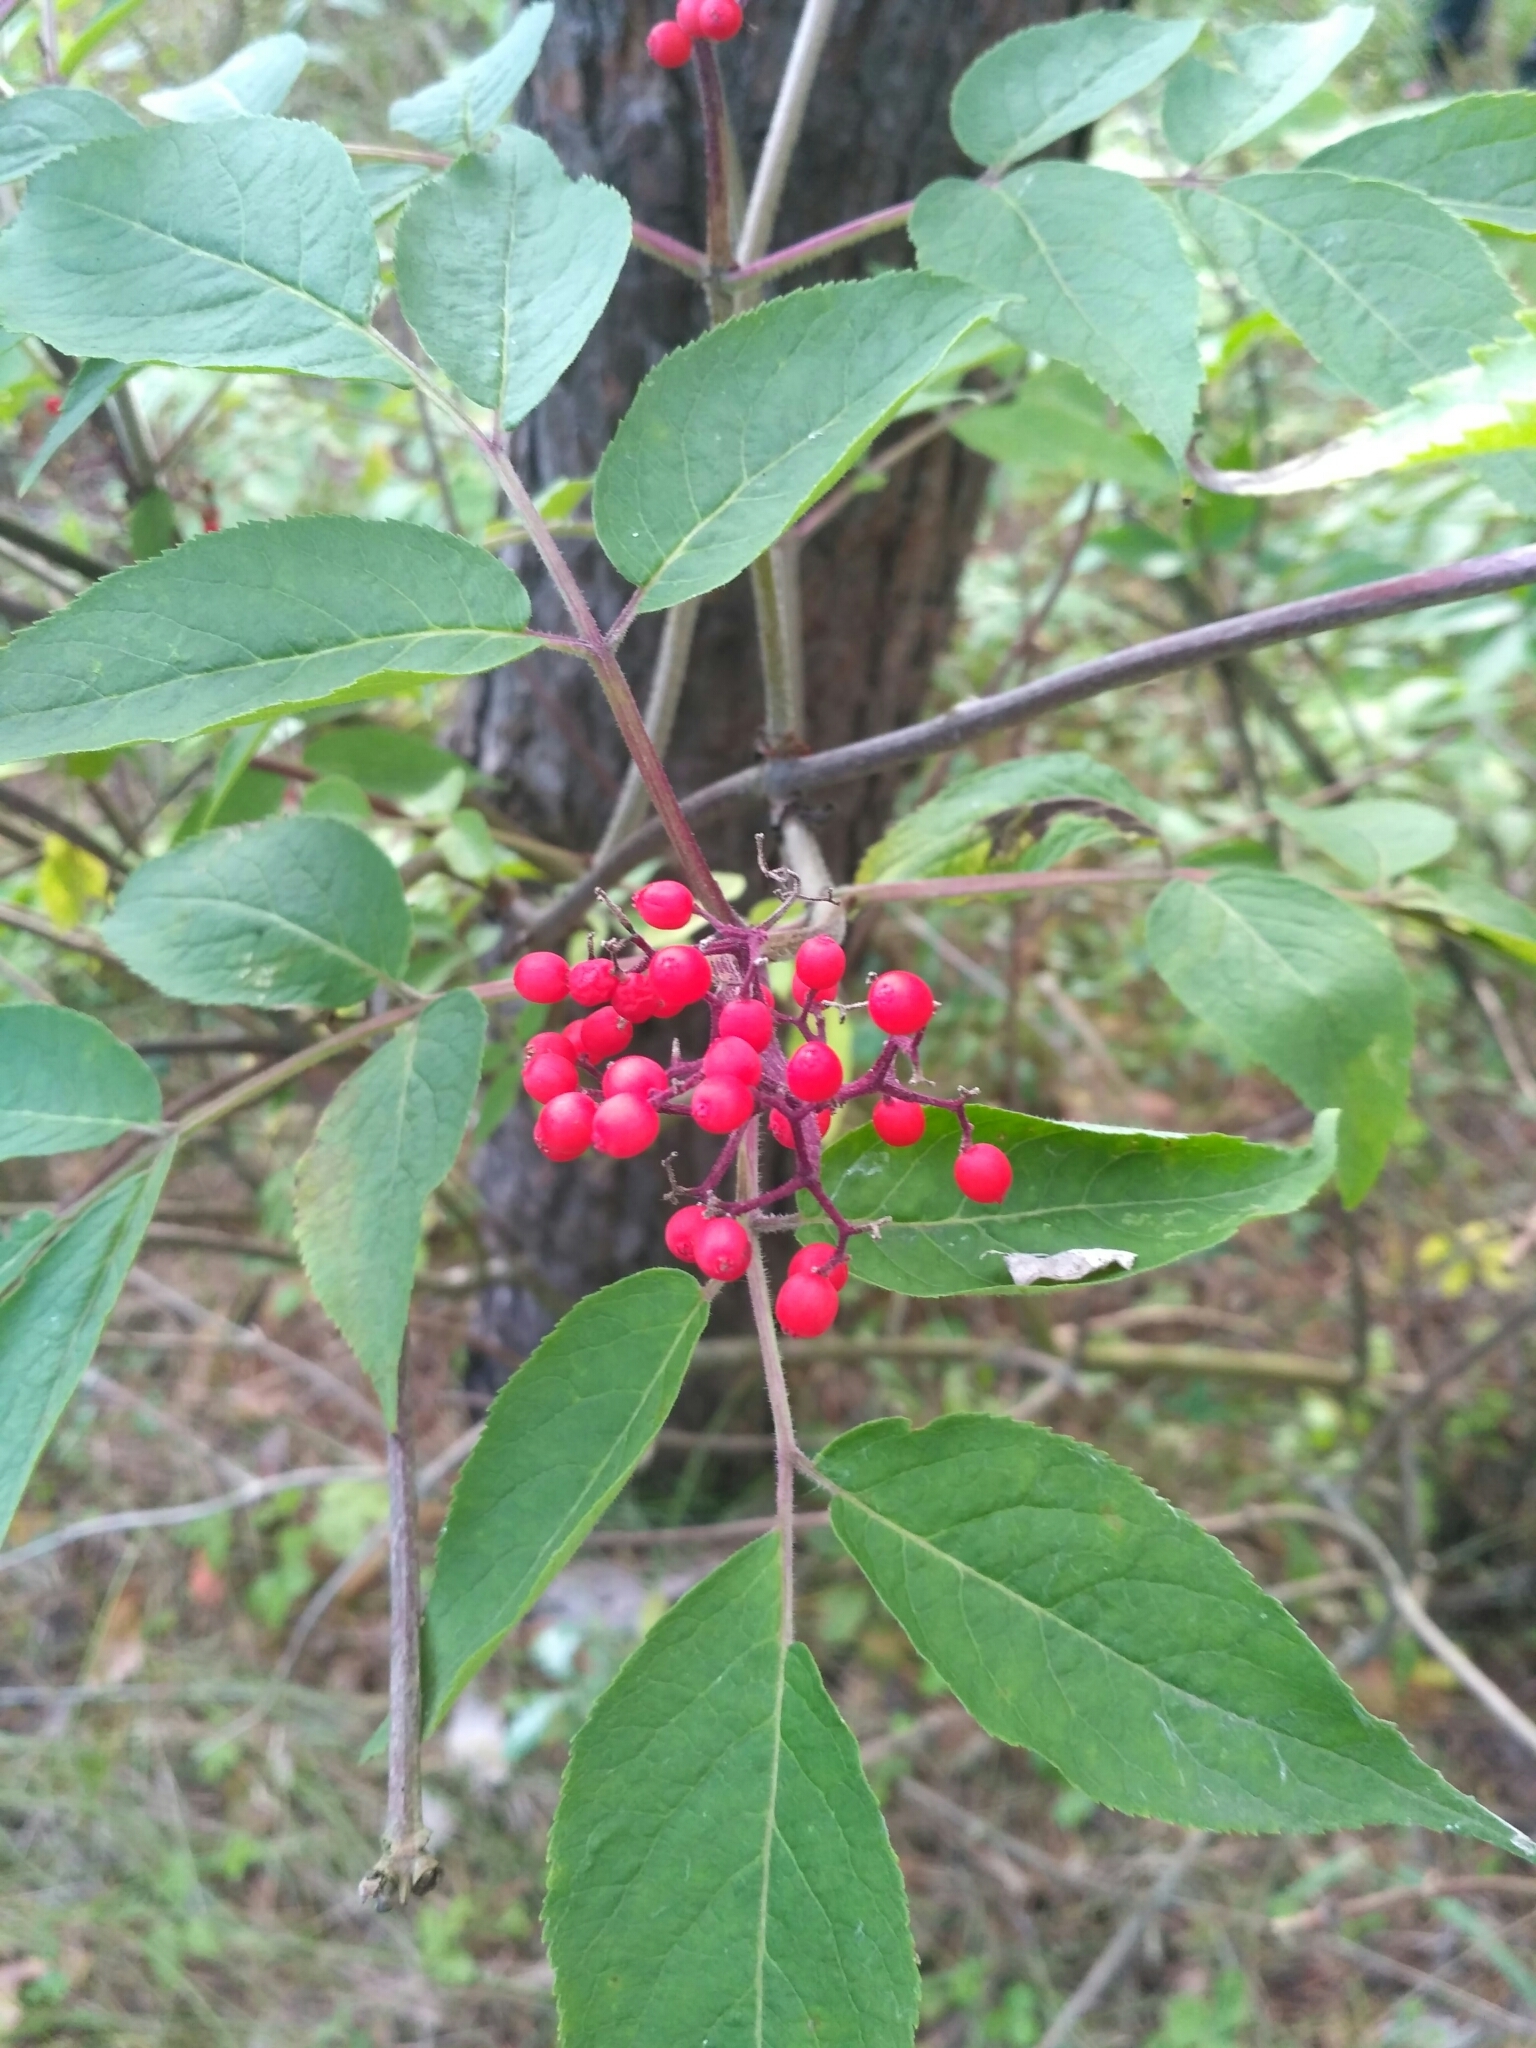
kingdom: Plantae
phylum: Tracheophyta
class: Magnoliopsida
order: Dipsacales
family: Viburnaceae
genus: Sambucus
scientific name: Sambucus racemosa
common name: Red-berried elder
